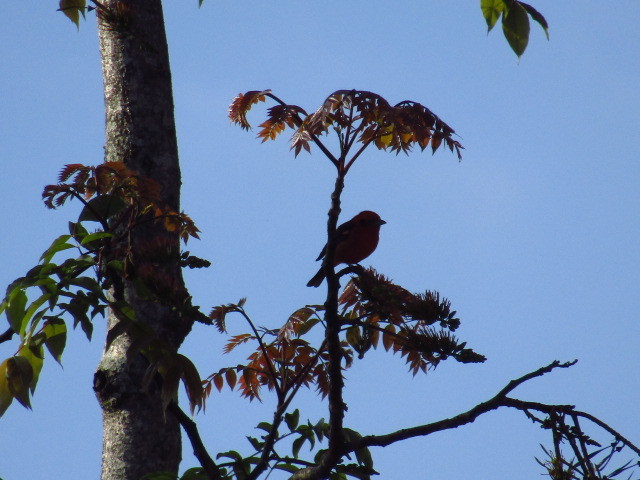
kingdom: Animalia
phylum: Chordata
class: Aves
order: Passeriformes
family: Cardinalidae
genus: Piranga
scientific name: Piranga bidentata
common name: Flame-colored tanager
